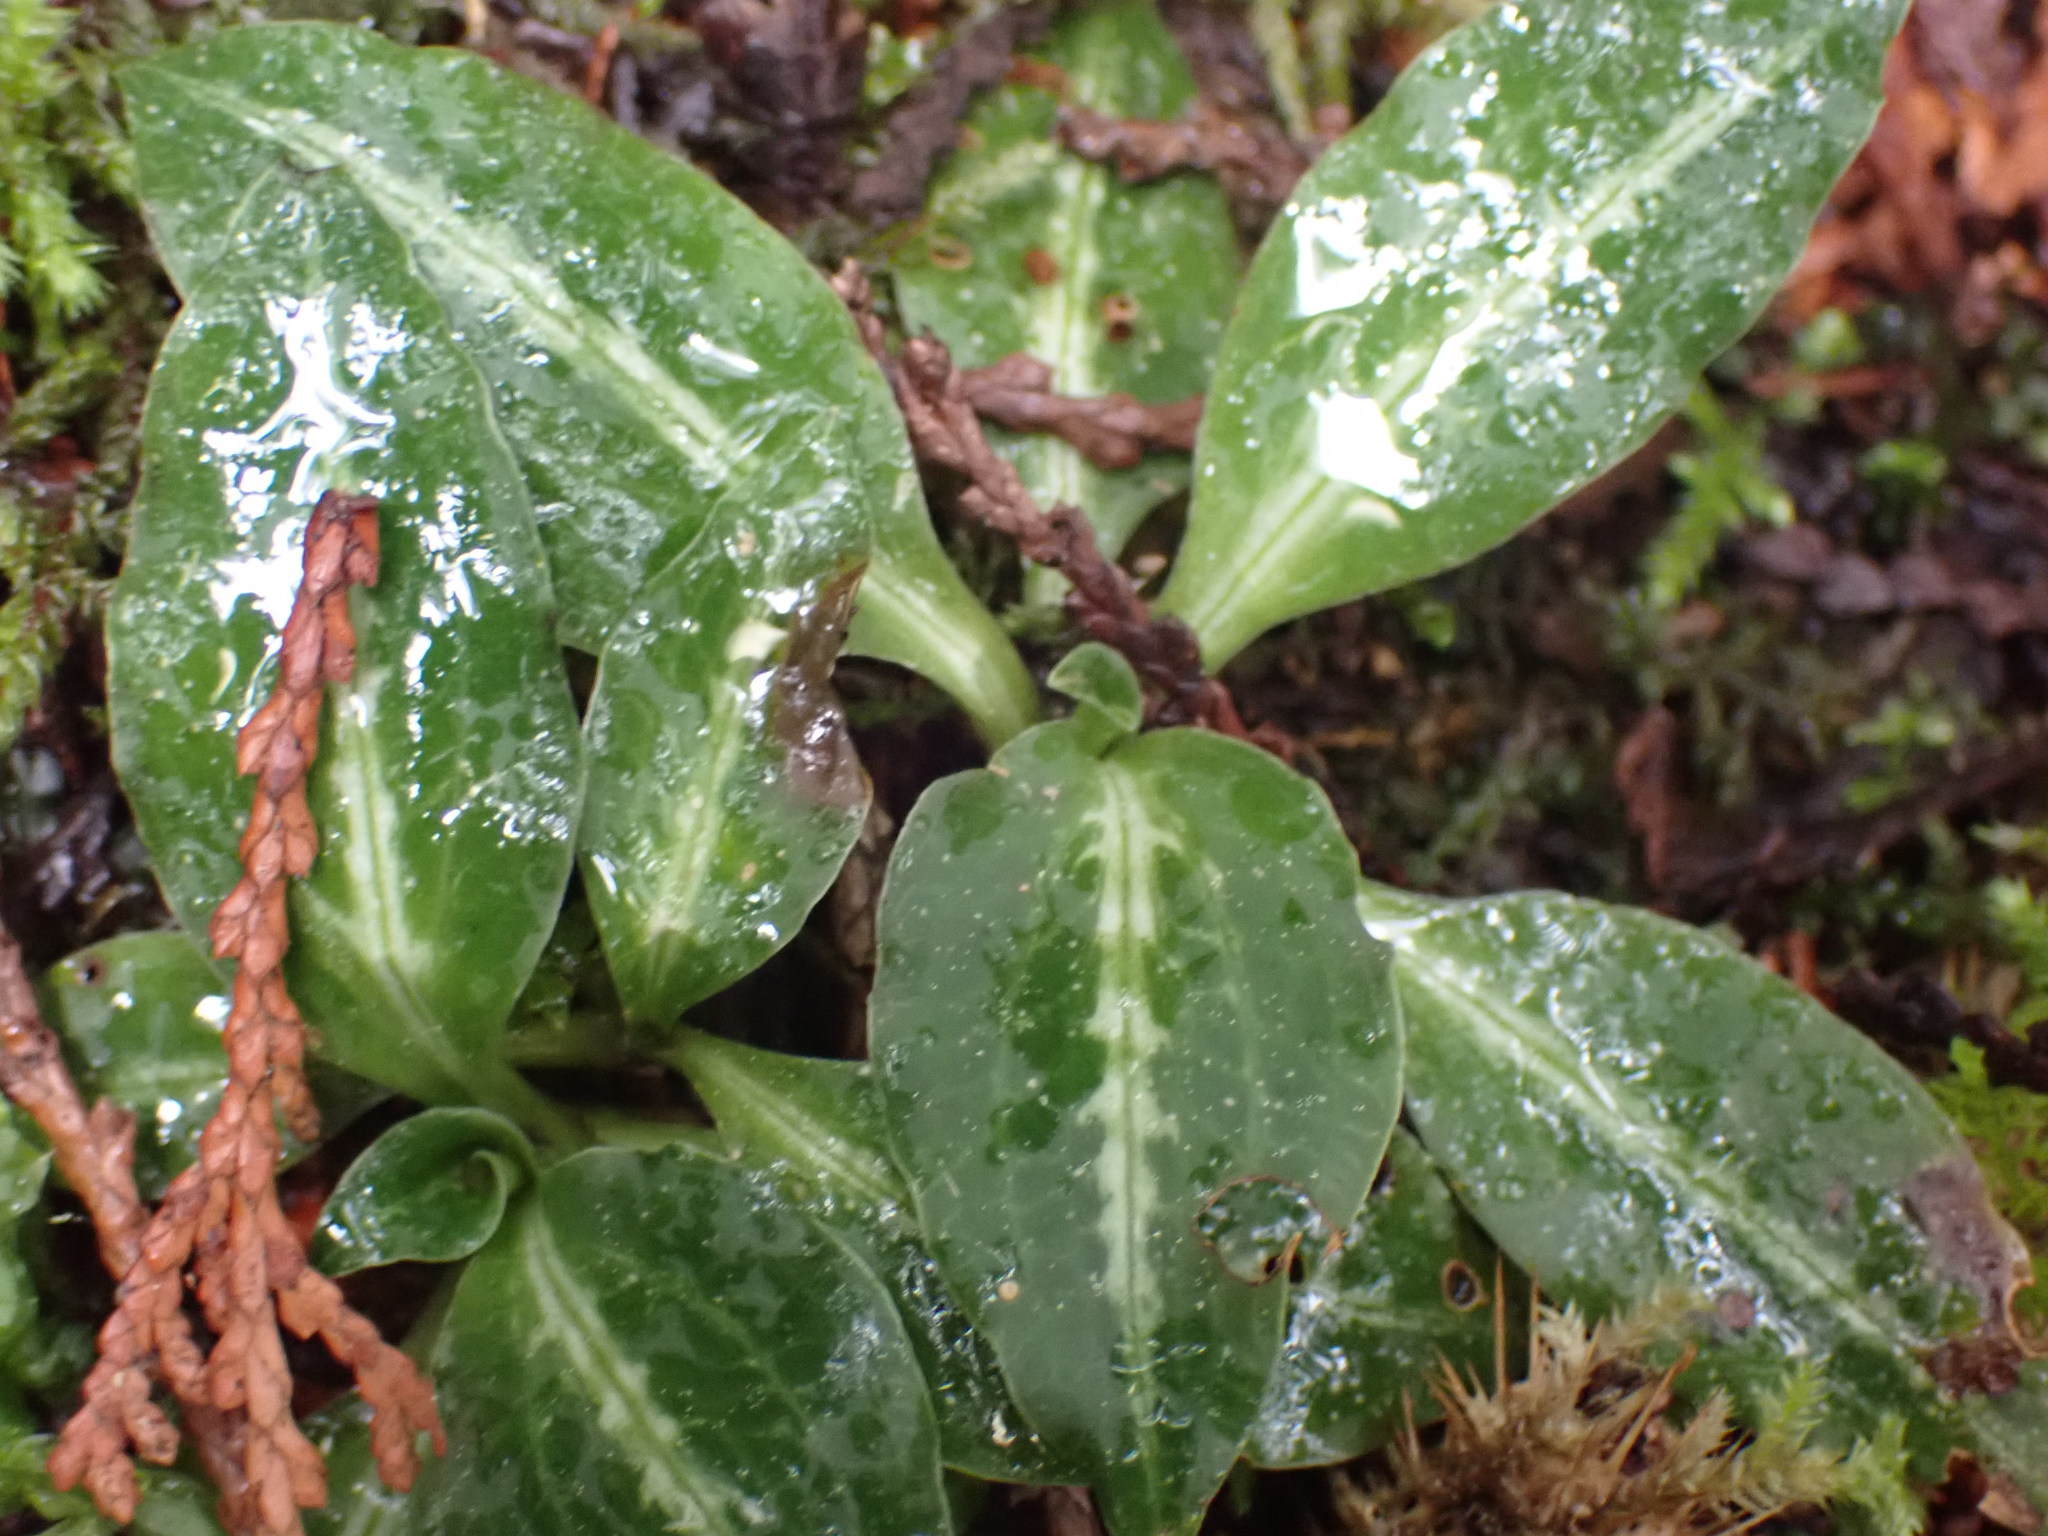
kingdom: Plantae
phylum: Tracheophyta
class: Liliopsida
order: Asparagales
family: Orchidaceae
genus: Goodyera
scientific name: Goodyera oblongifolia
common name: Giant rattlesnake-plantain
